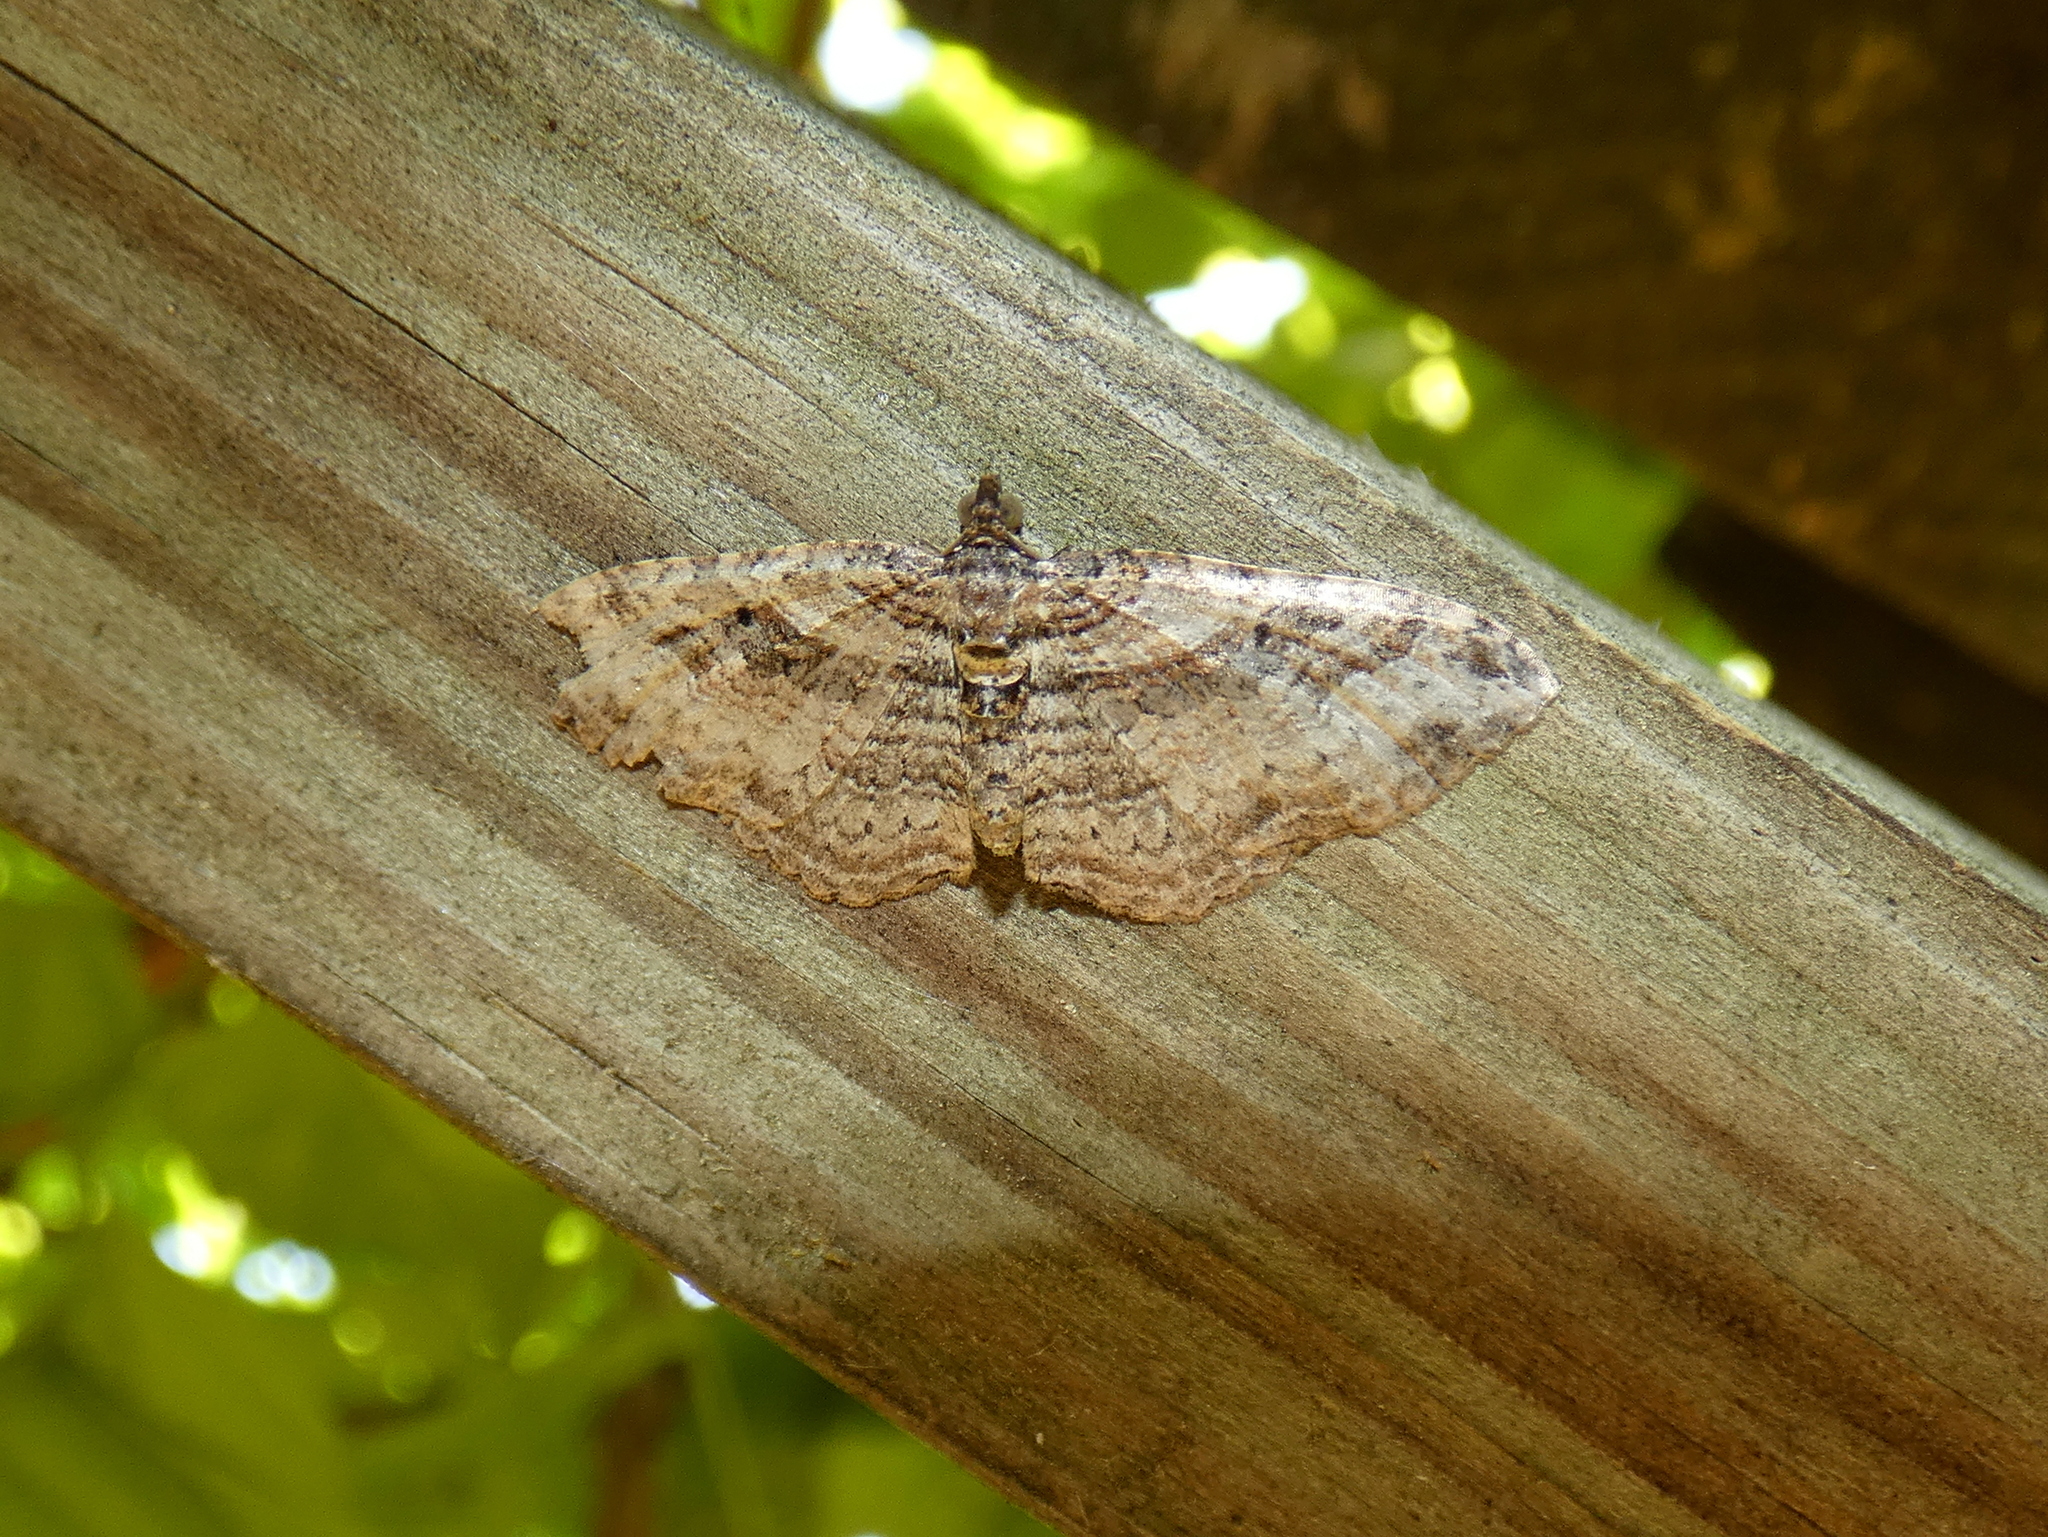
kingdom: Animalia
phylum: Arthropoda
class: Insecta
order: Lepidoptera
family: Geometridae
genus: Costaconvexa
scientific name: Costaconvexa centrostrigaria
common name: Bent-line carpet
